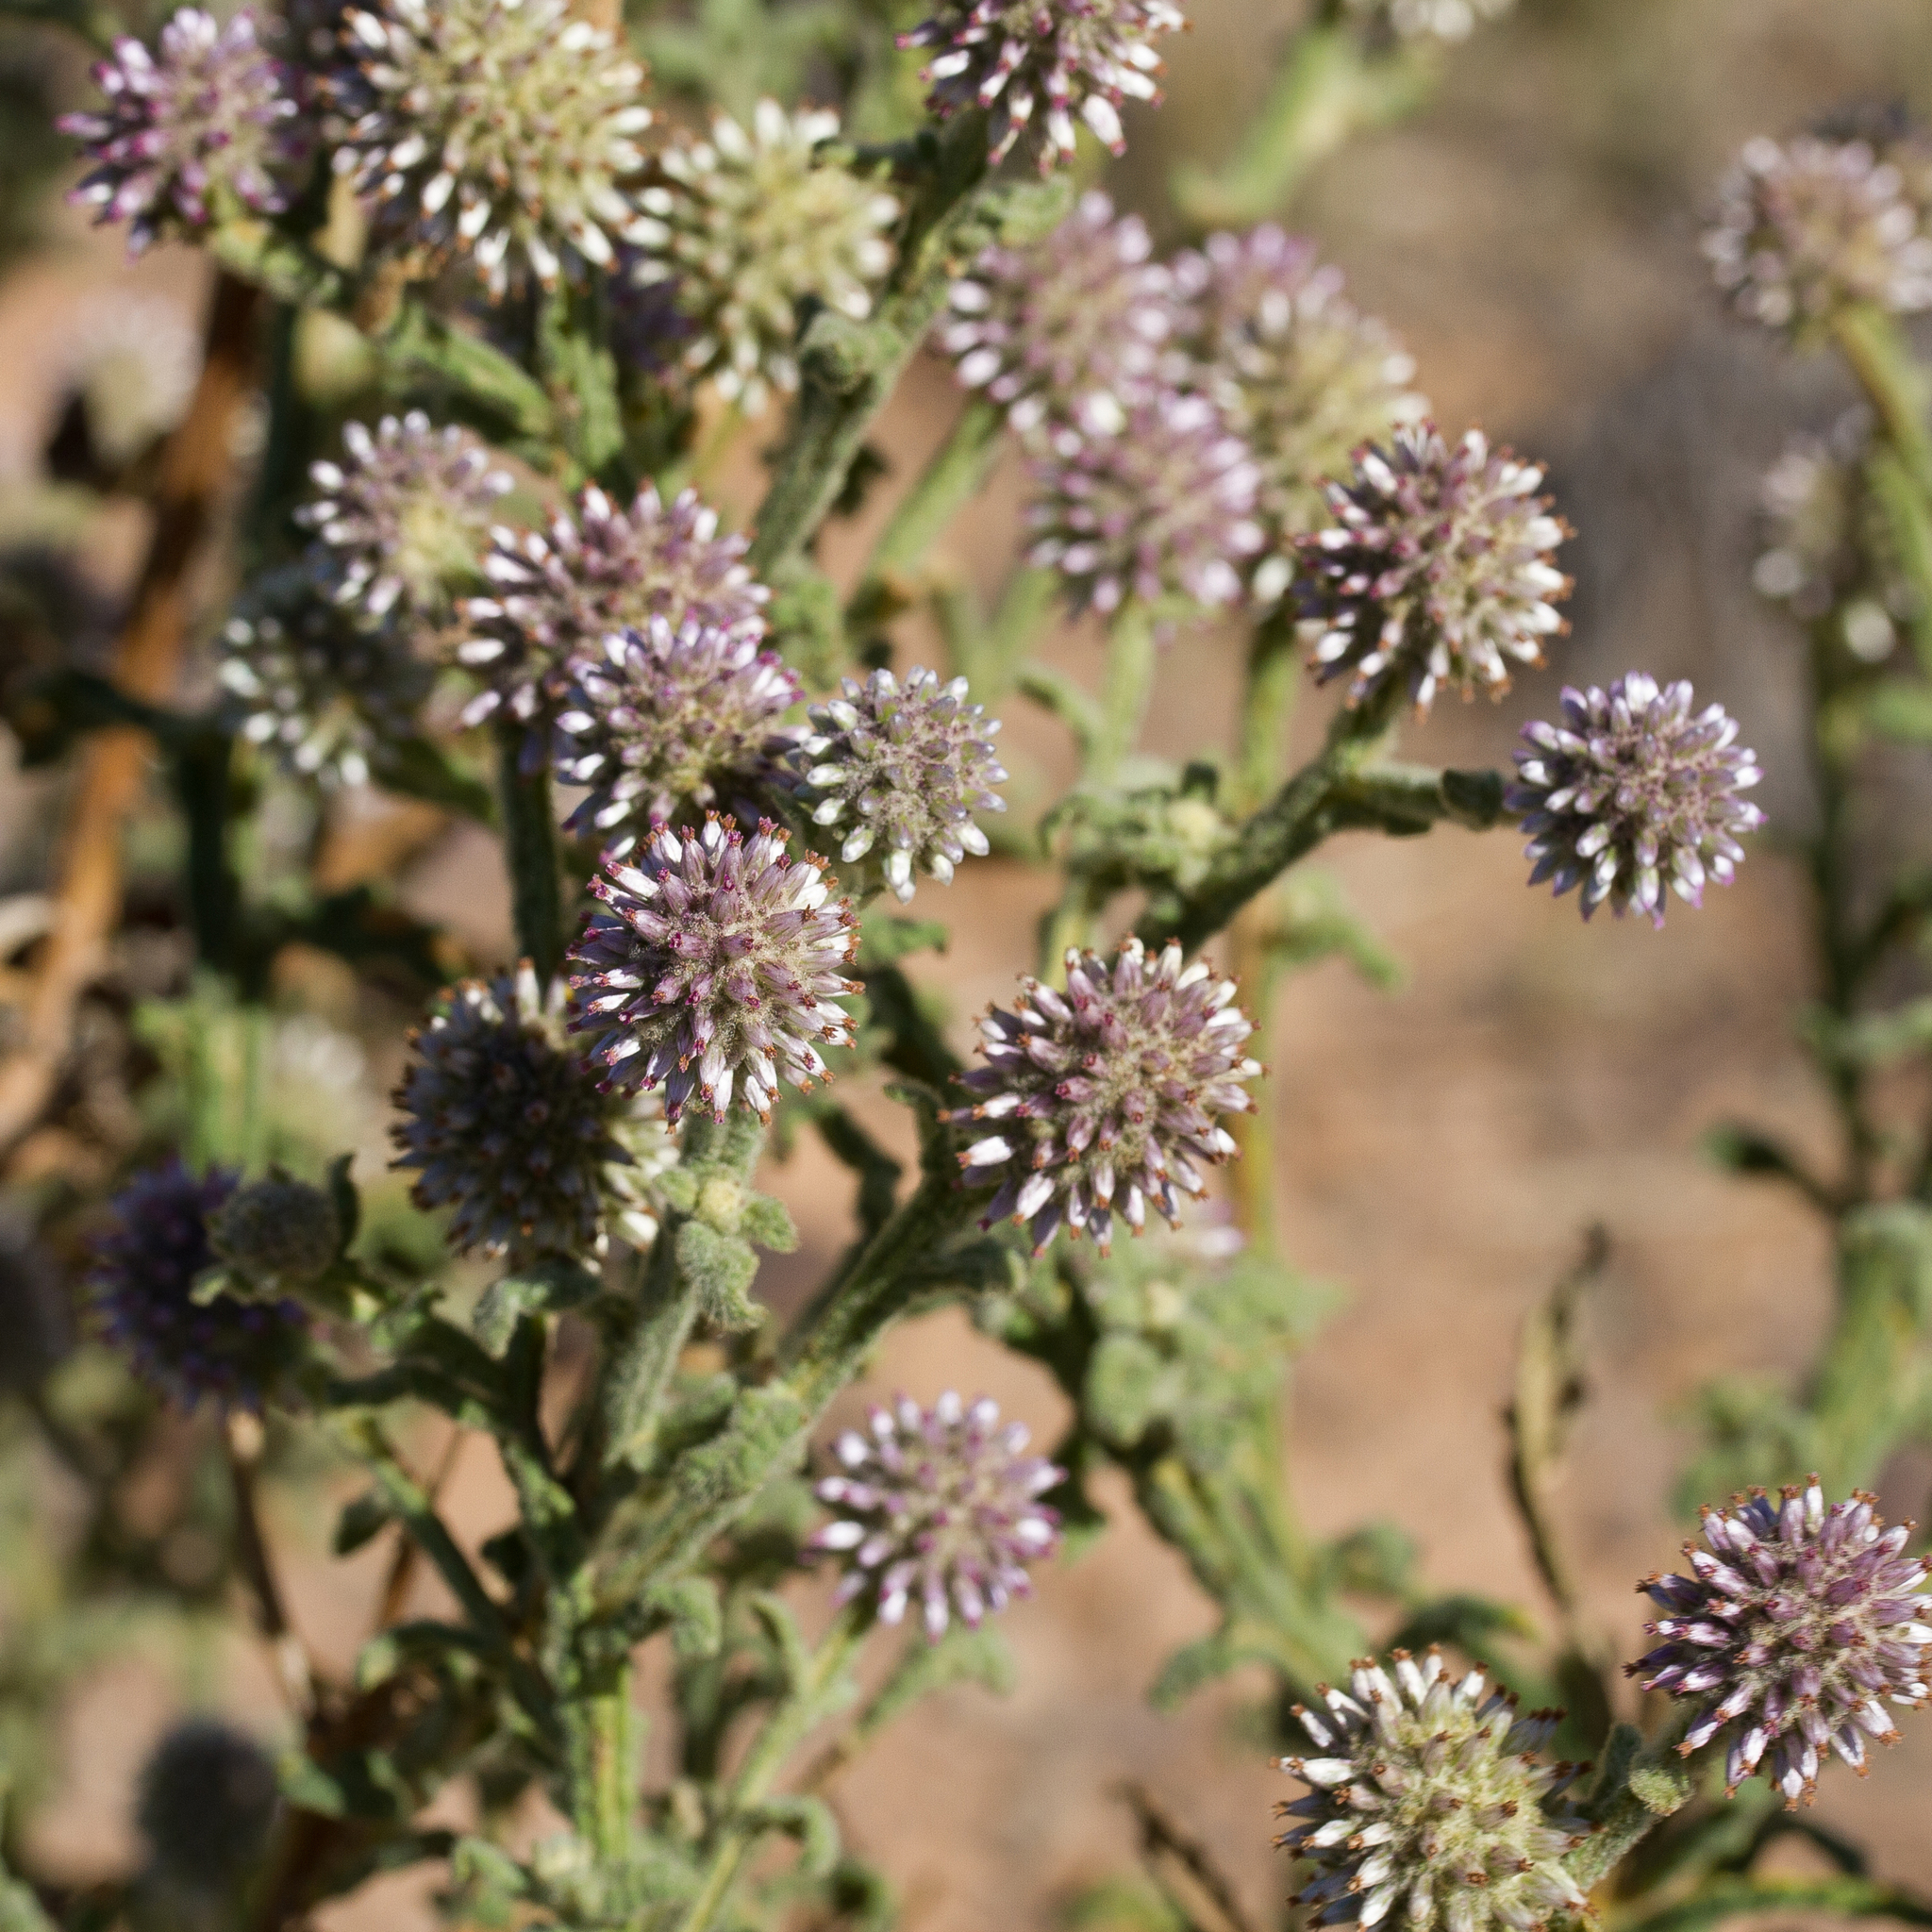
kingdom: Plantae
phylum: Tracheophyta
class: Magnoliopsida
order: Asterales
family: Asteraceae
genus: Pterocaulon
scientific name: Pterocaulon sphacelatum
